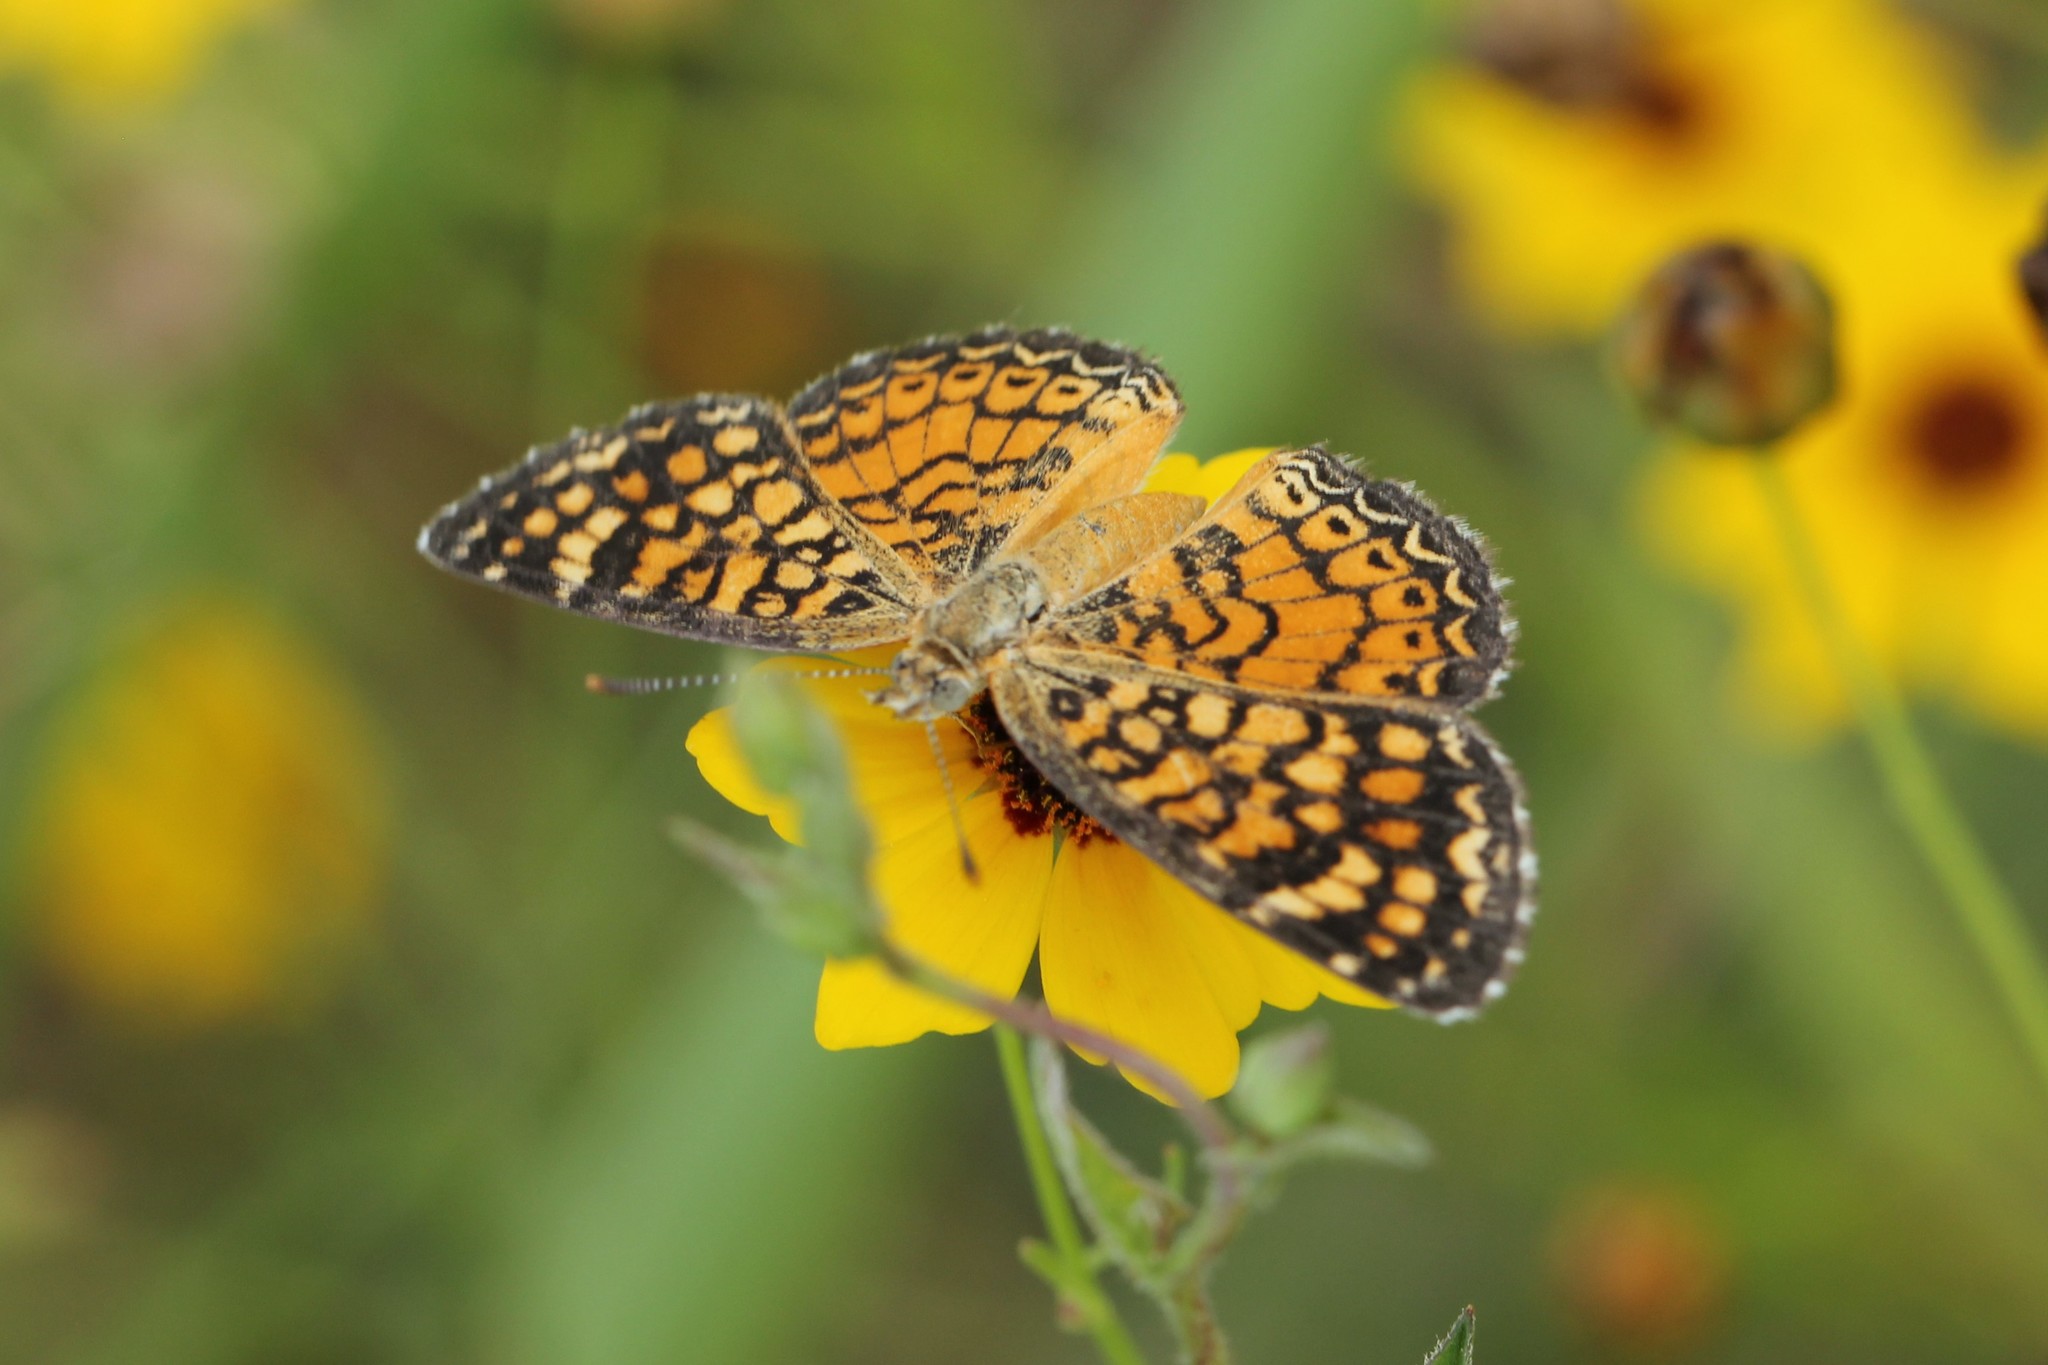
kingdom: Animalia
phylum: Arthropoda
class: Insecta
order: Lepidoptera
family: Nymphalidae
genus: Phyciodes
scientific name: Phyciodes vesta
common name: Vesta crescent
